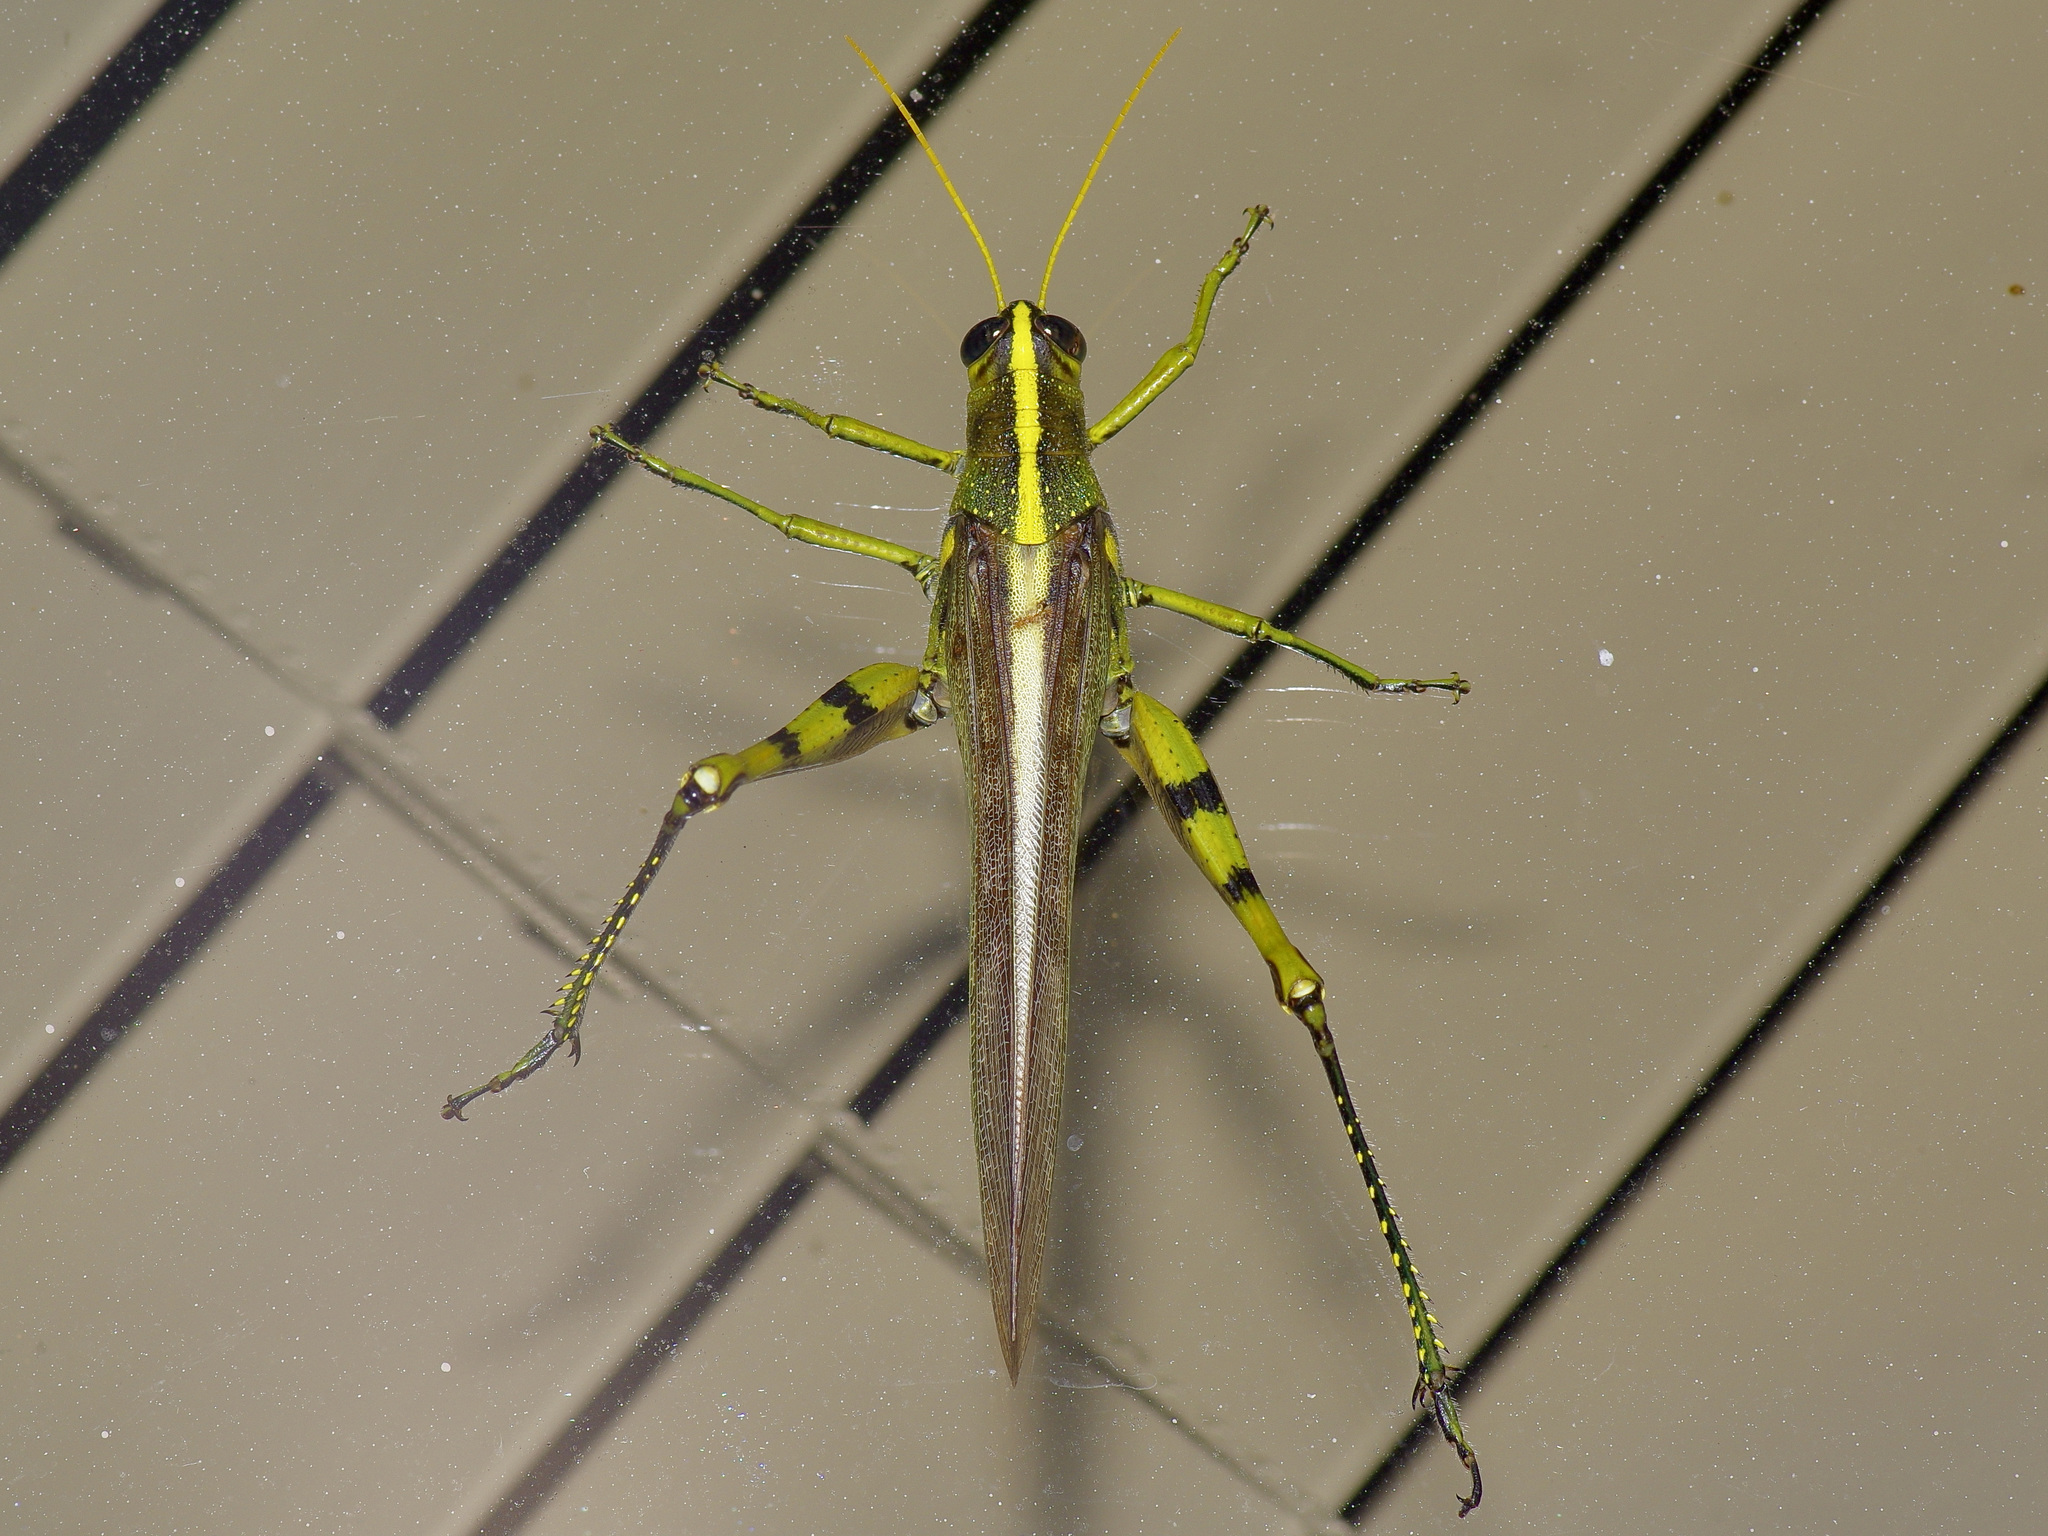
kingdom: Animalia
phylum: Arthropoda
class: Insecta
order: Orthoptera
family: Acrididae
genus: Schistocerca
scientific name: Schistocerca obscura
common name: Obscure bird grasshopper
